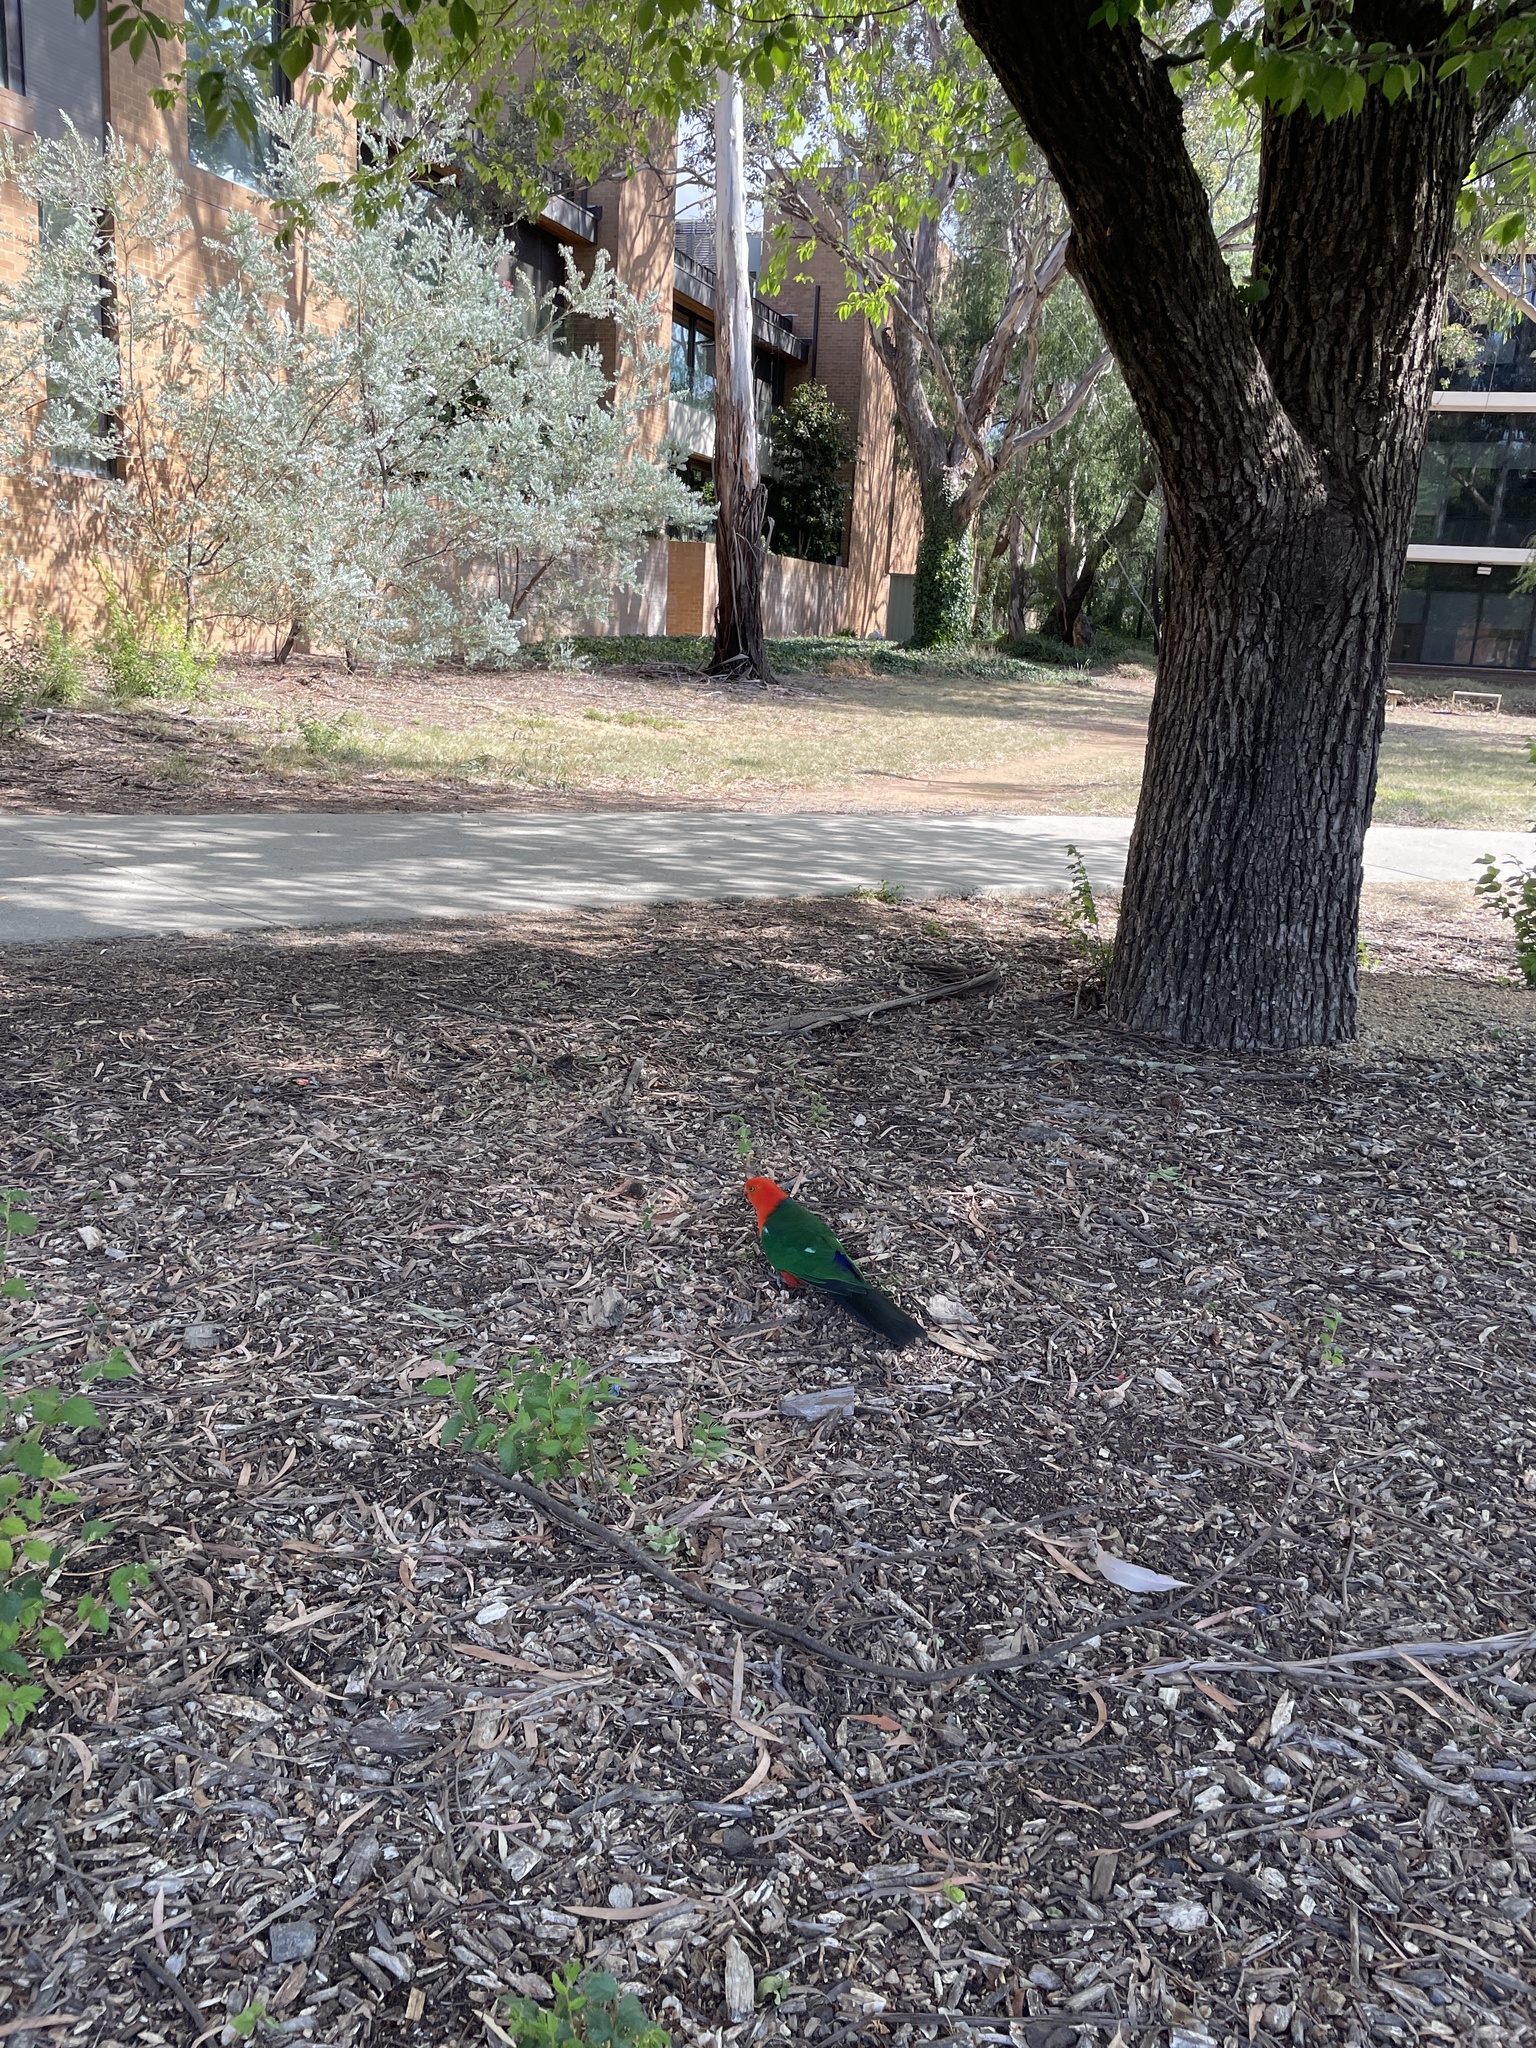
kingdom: Animalia
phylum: Chordata
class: Aves
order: Psittaciformes
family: Psittacidae
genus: Alisterus
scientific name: Alisterus scapularis
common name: Australian king parrot
